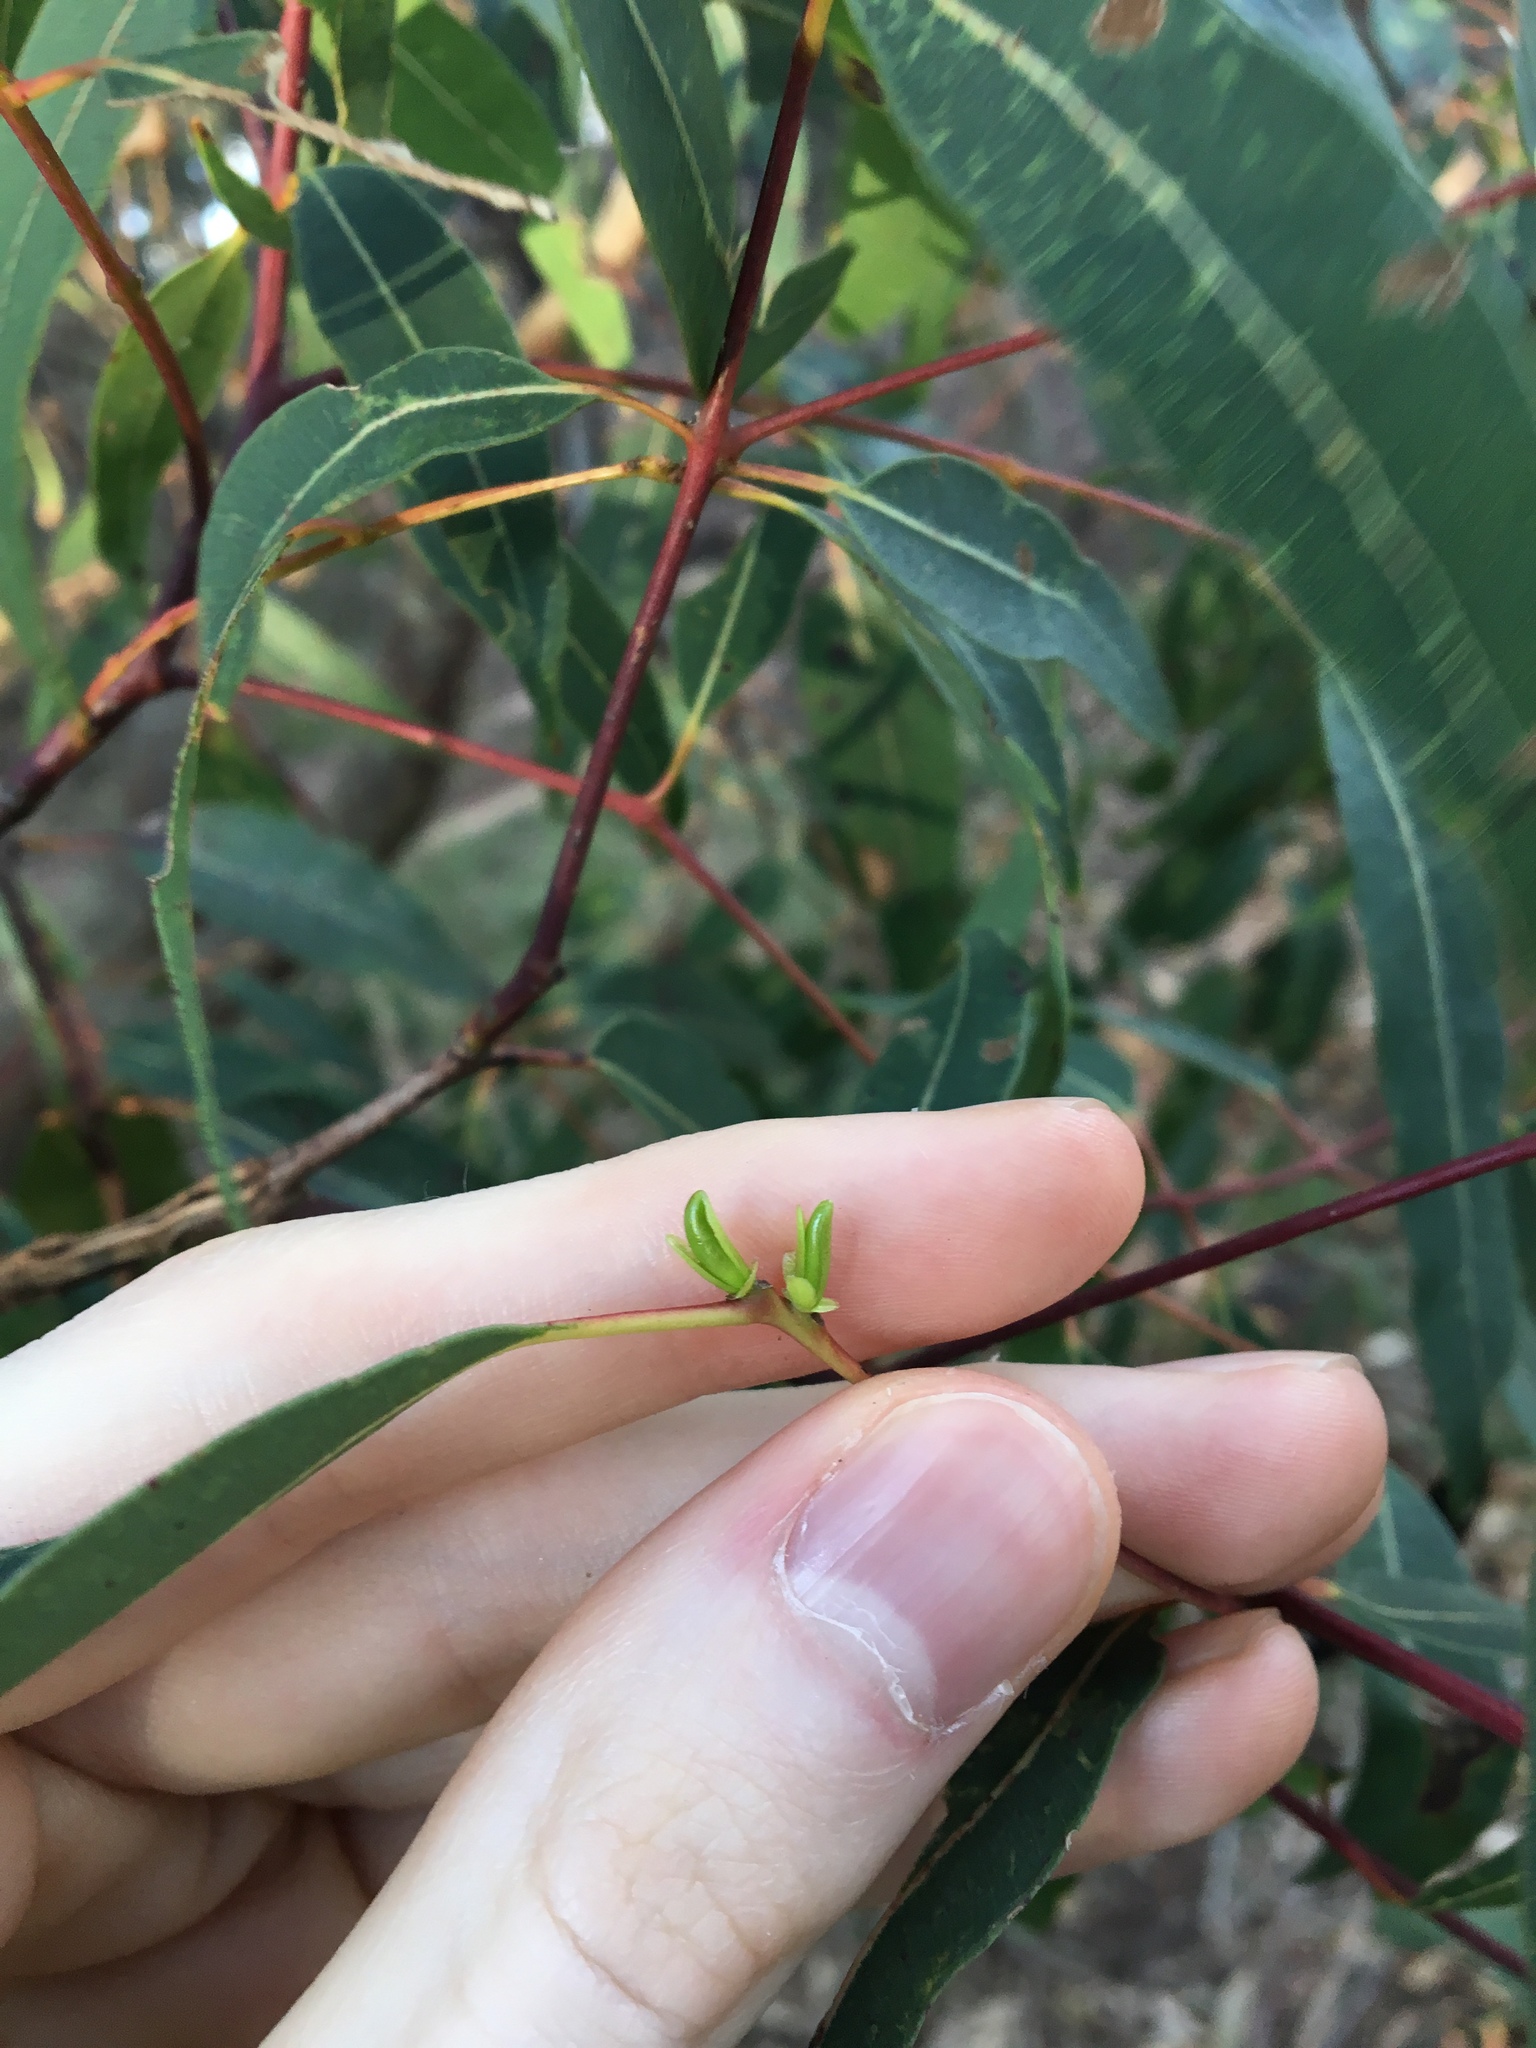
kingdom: Plantae
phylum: Tracheophyta
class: Magnoliopsida
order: Myrtales
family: Myrtaceae
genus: Angophora
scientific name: Angophora costata
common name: Gum myrtle
